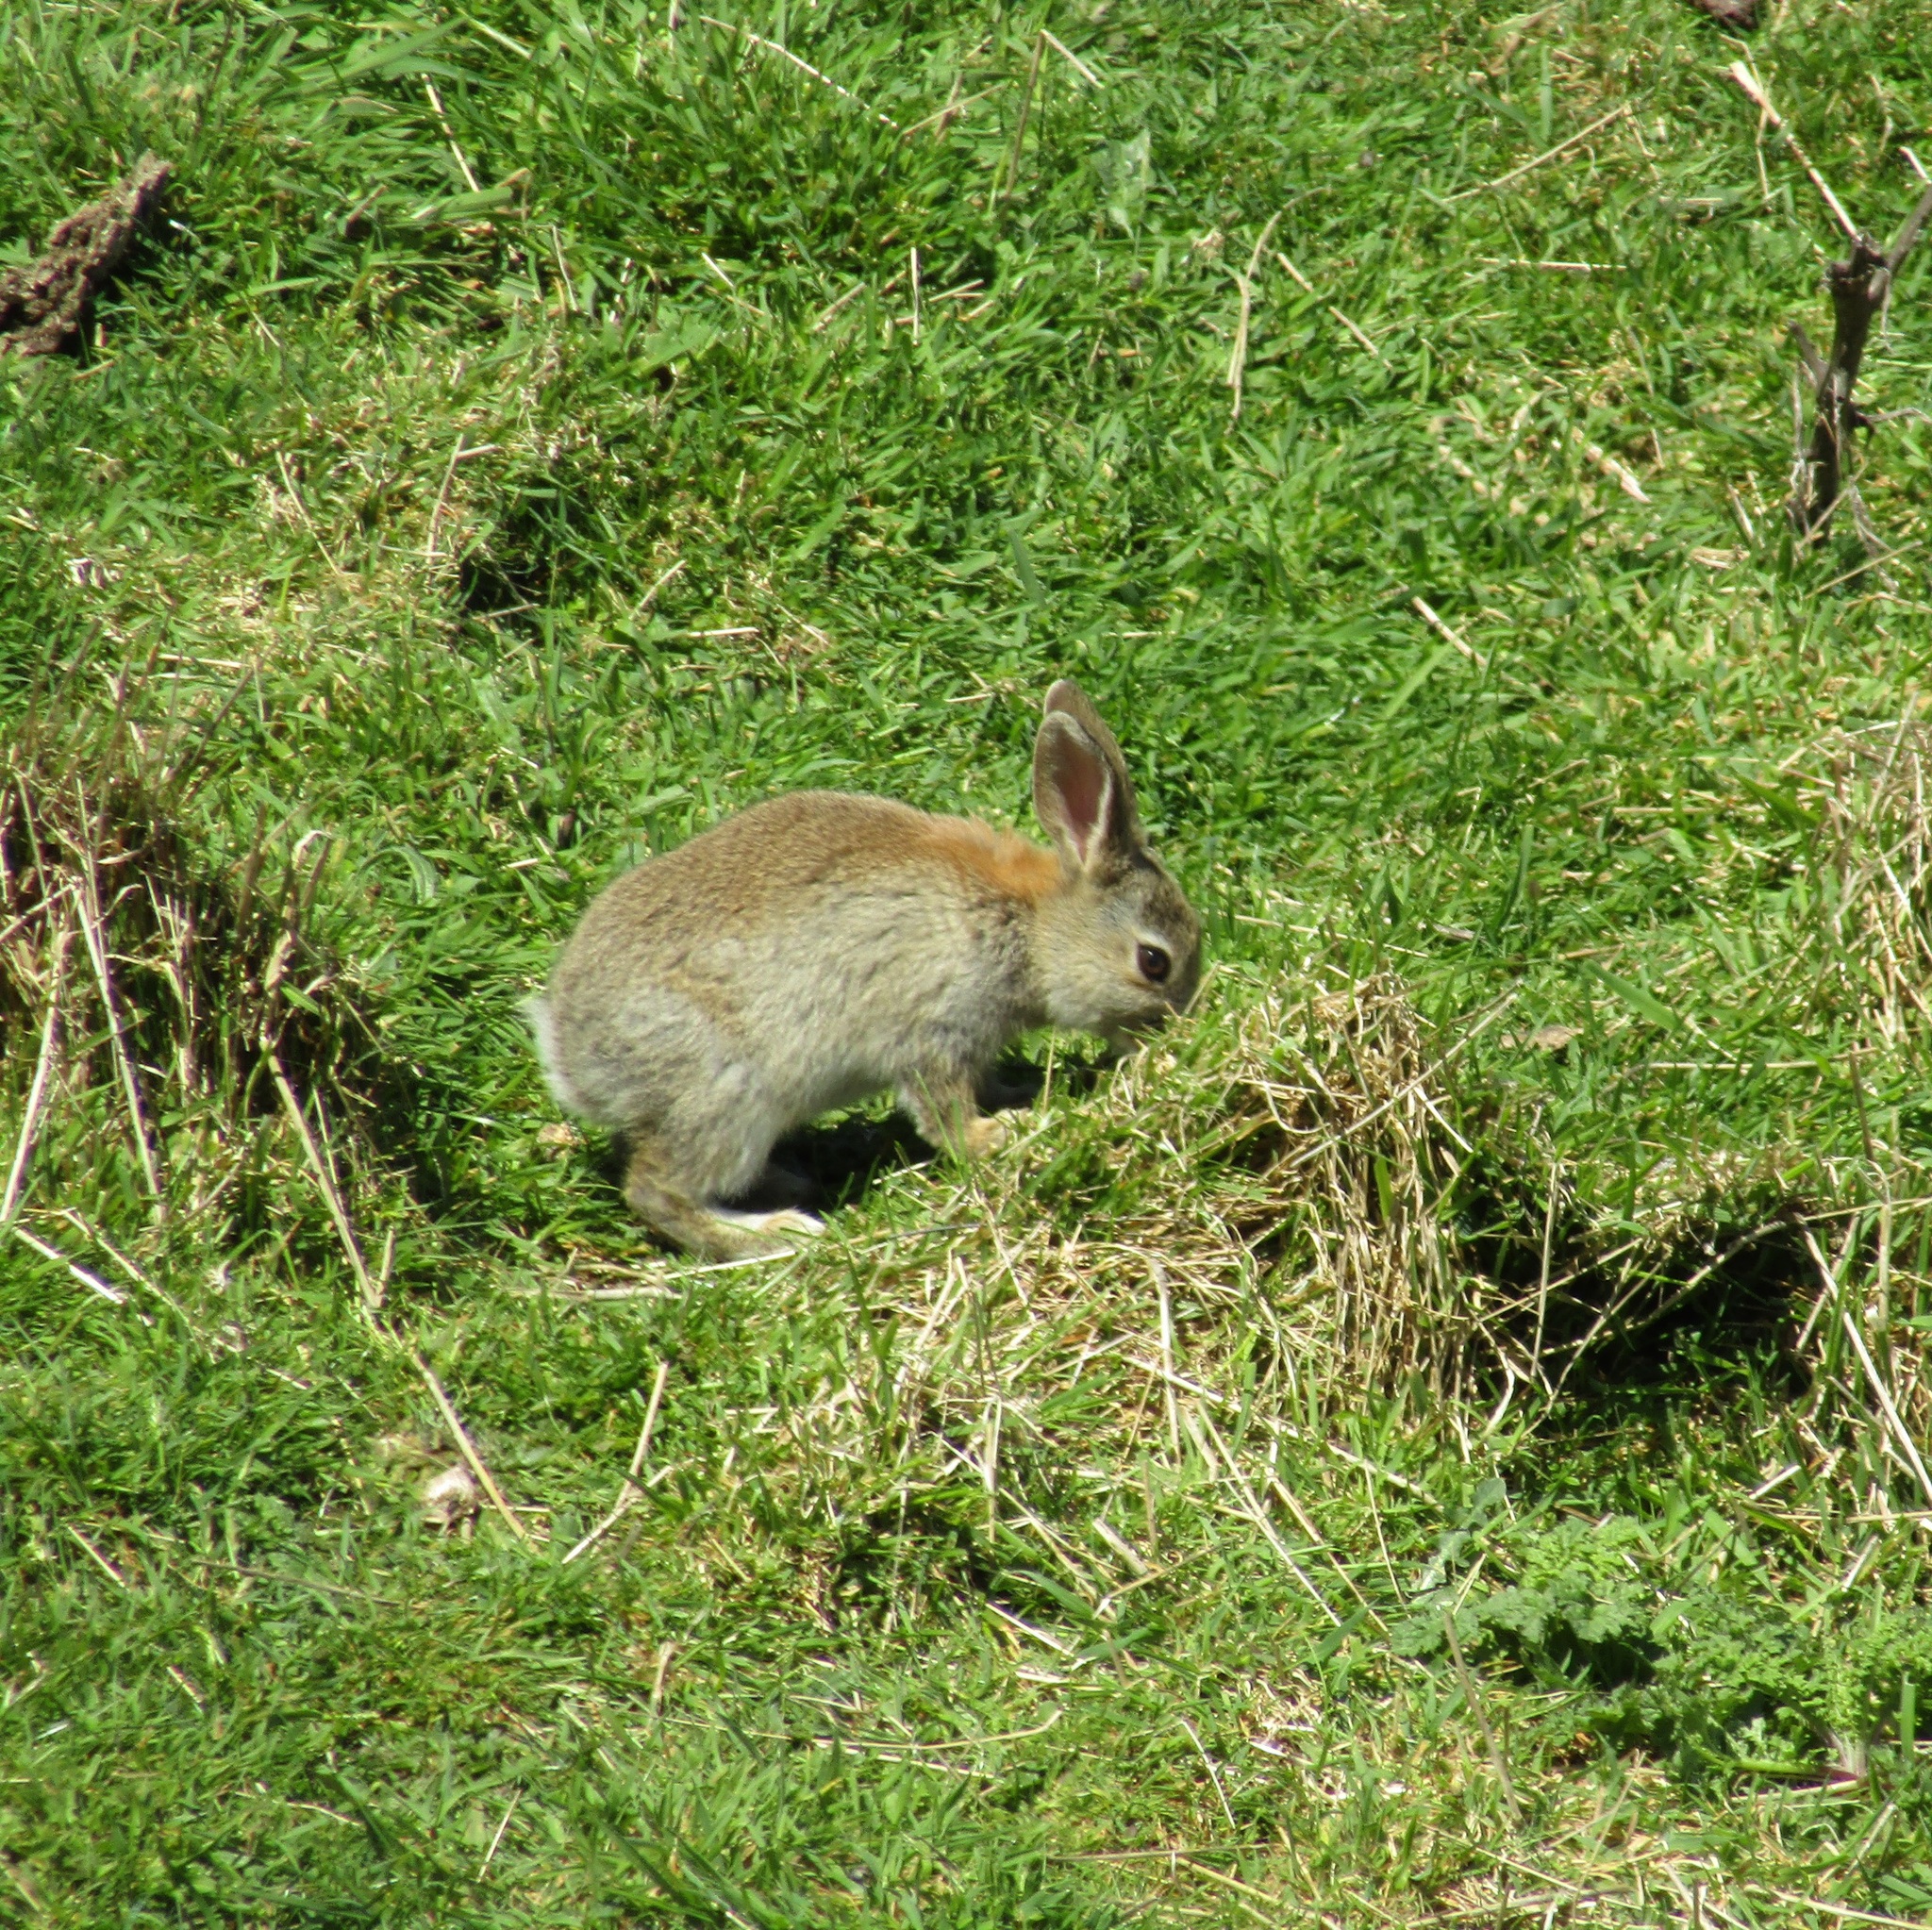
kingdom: Animalia
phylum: Chordata
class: Mammalia
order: Lagomorpha
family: Leporidae
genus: Oryctolagus
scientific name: Oryctolagus cuniculus
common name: European rabbit
